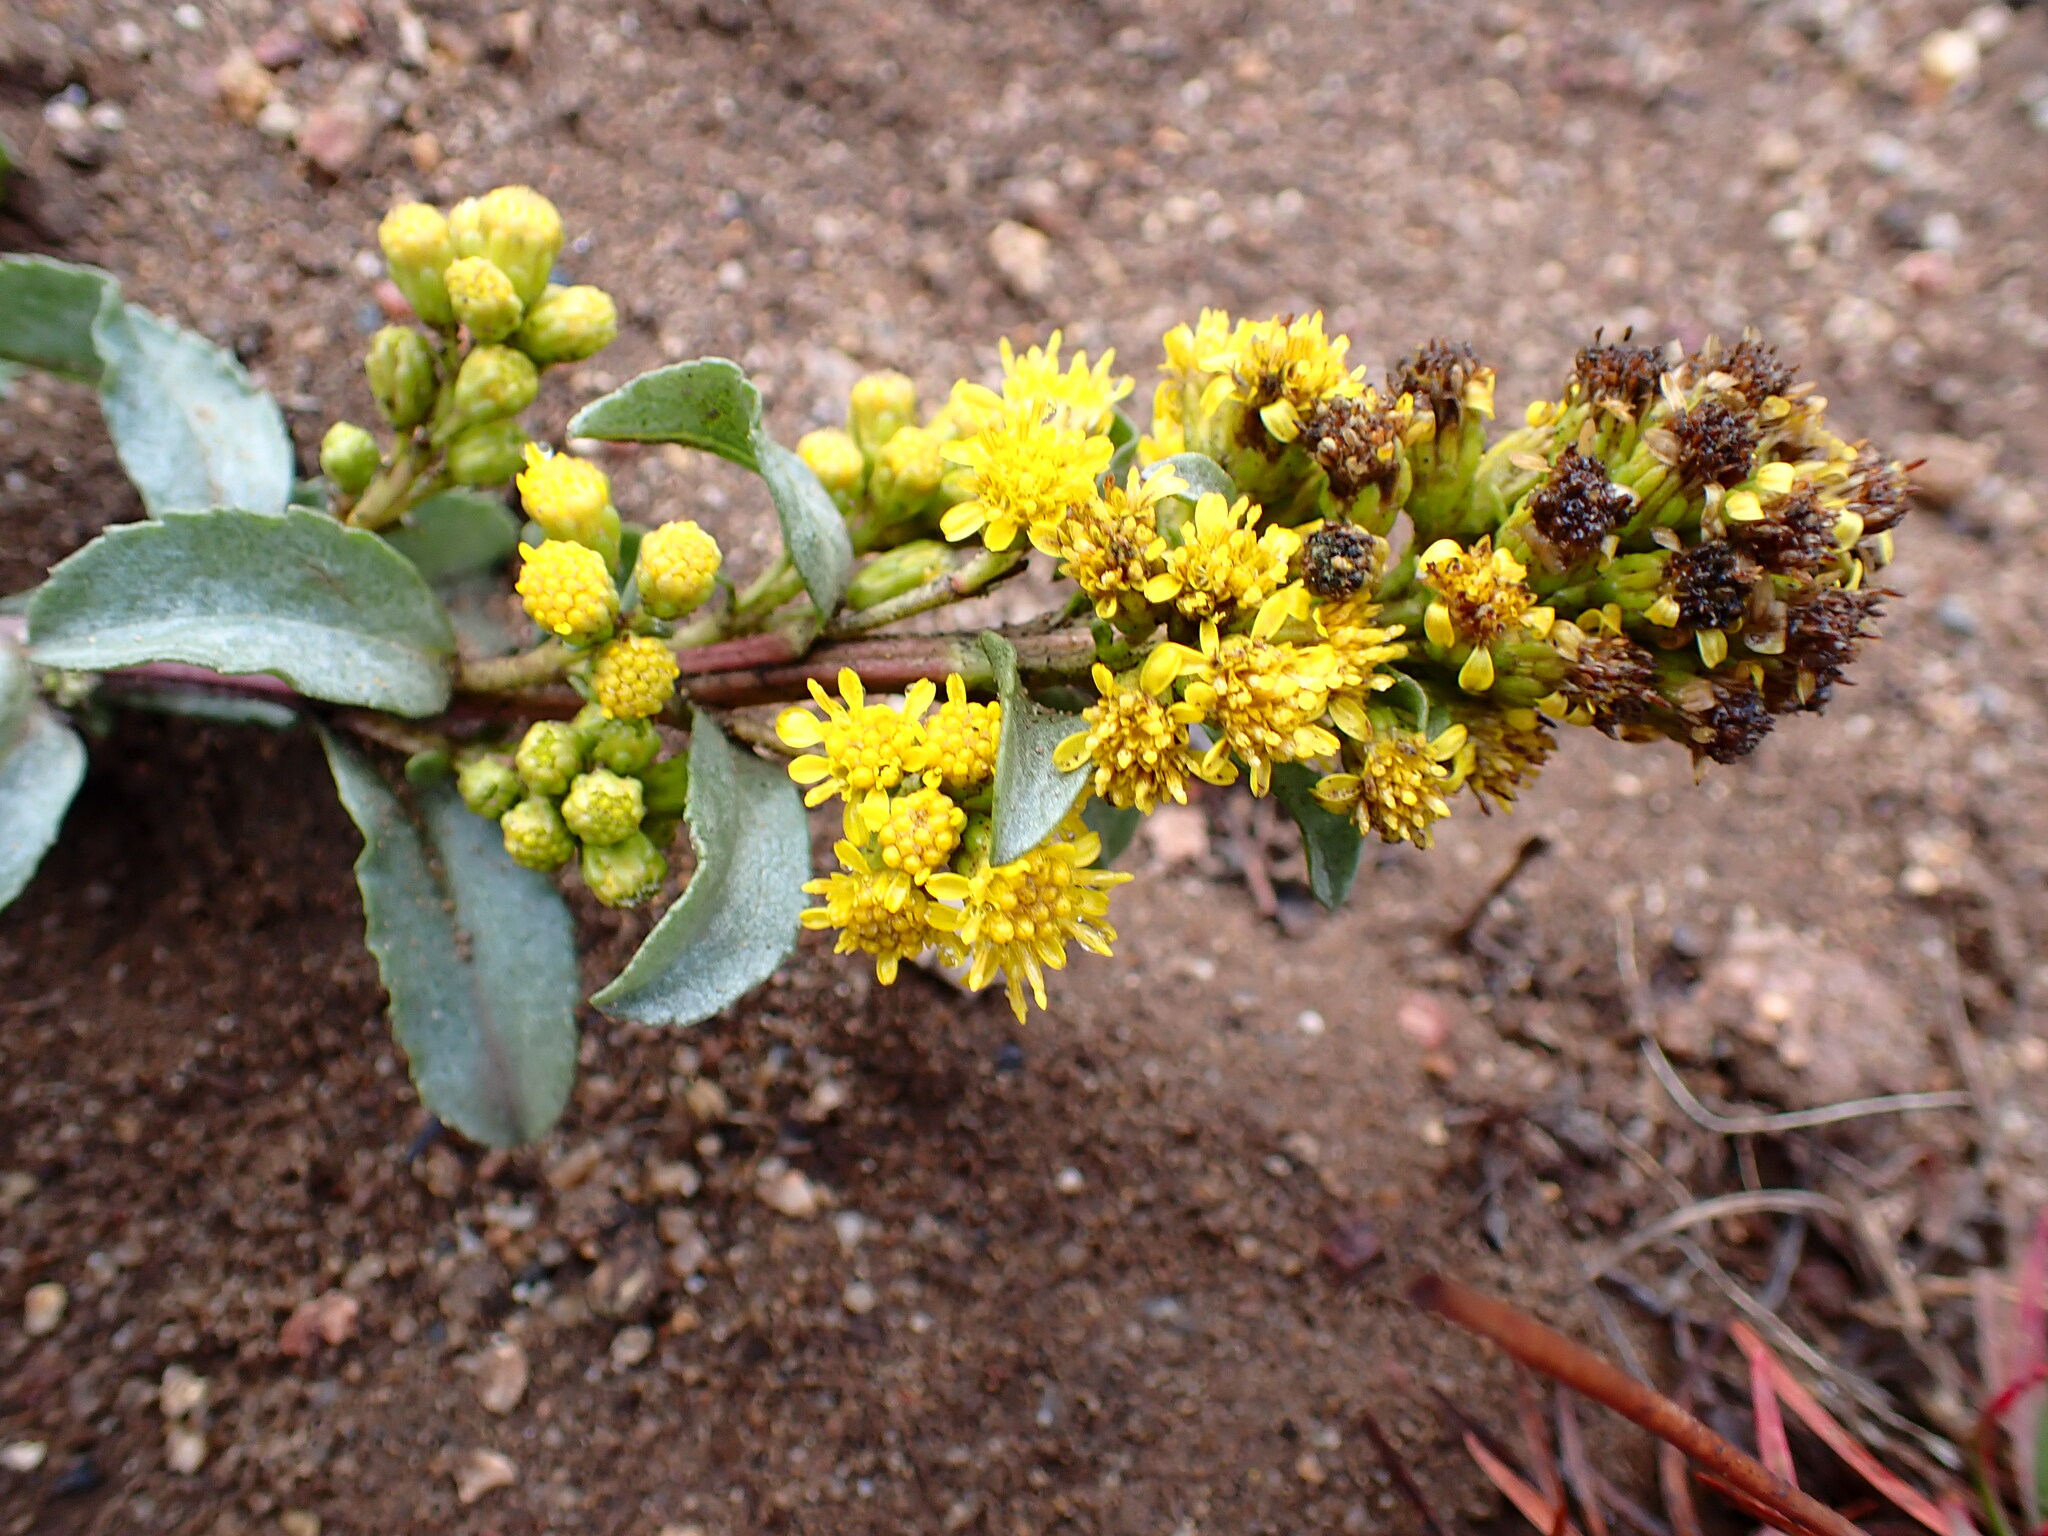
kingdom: Plantae
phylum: Tracheophyta
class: Magnoliopsida
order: Asterales
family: Asteraceae
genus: Solidago
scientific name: Solidago spathulata
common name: Coast goldenrod
